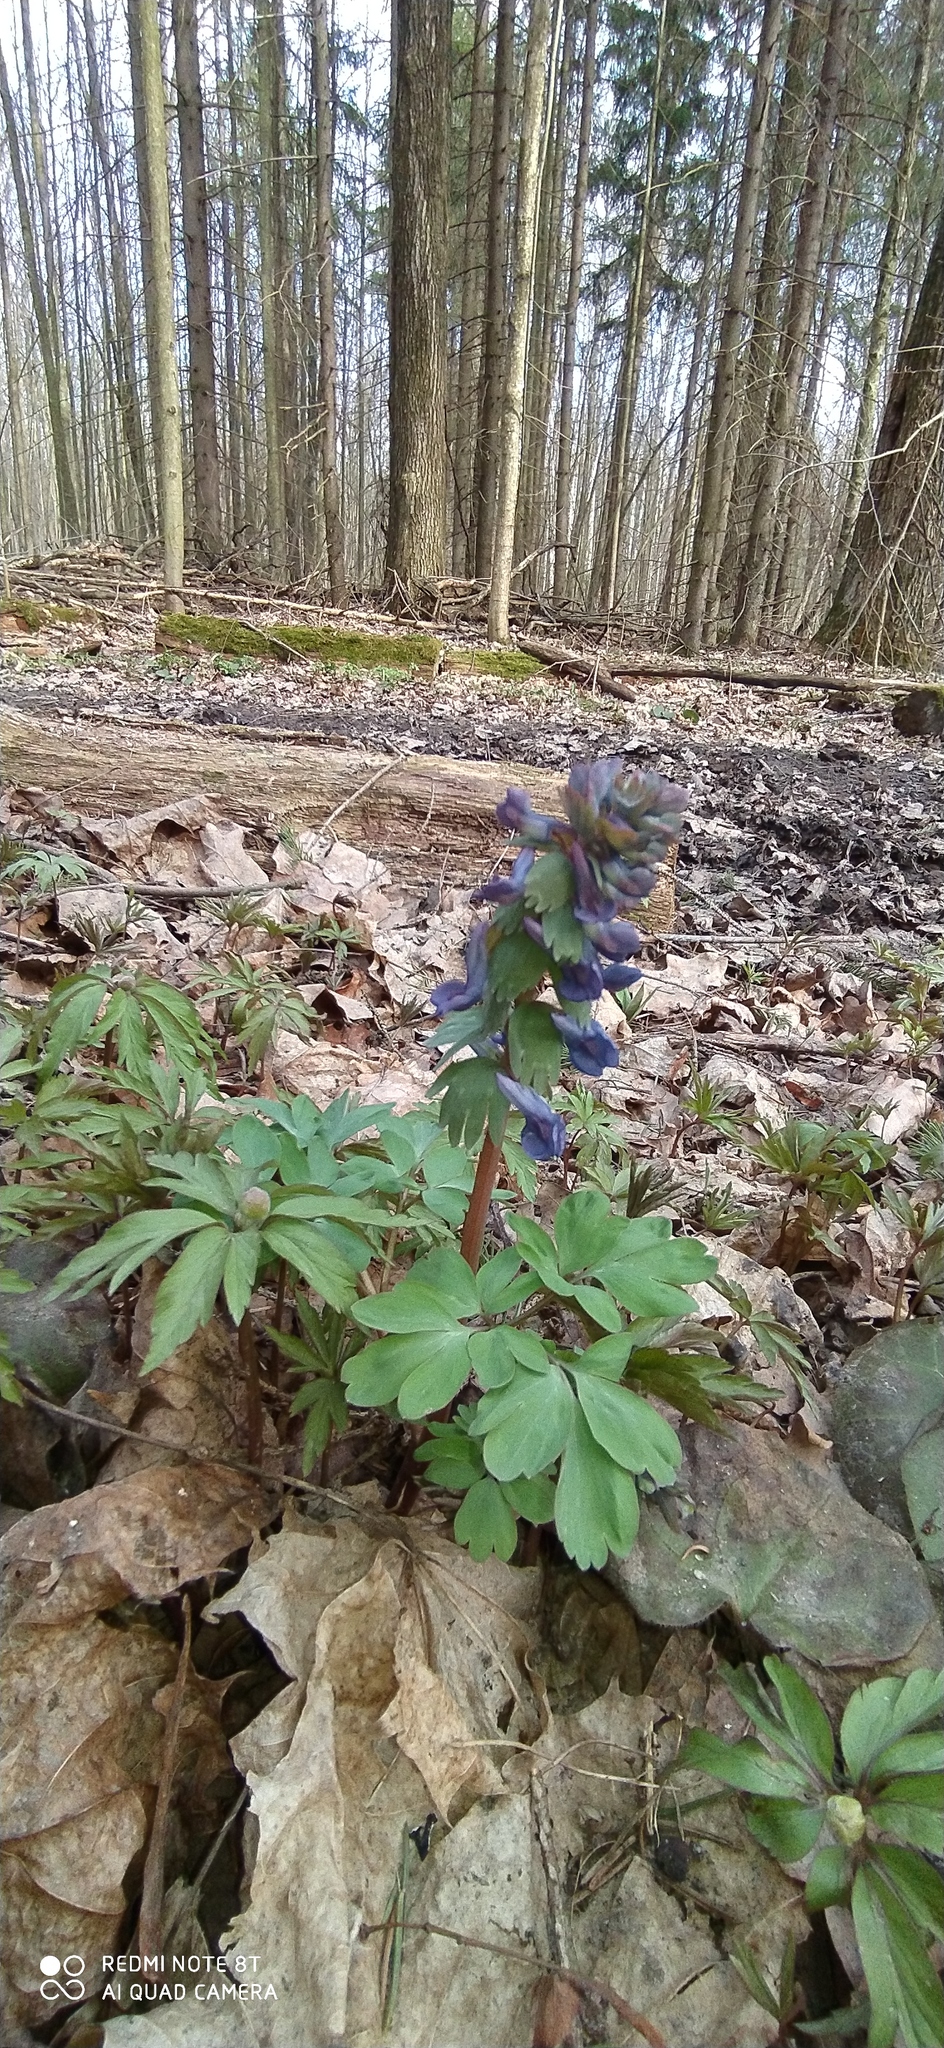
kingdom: Plantae
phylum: Tracheophyta
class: Magnoliopsida
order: Ranunculales
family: Papaveraceae
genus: Corydalis
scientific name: Corydalis solida
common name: Bird-in-a-bush
